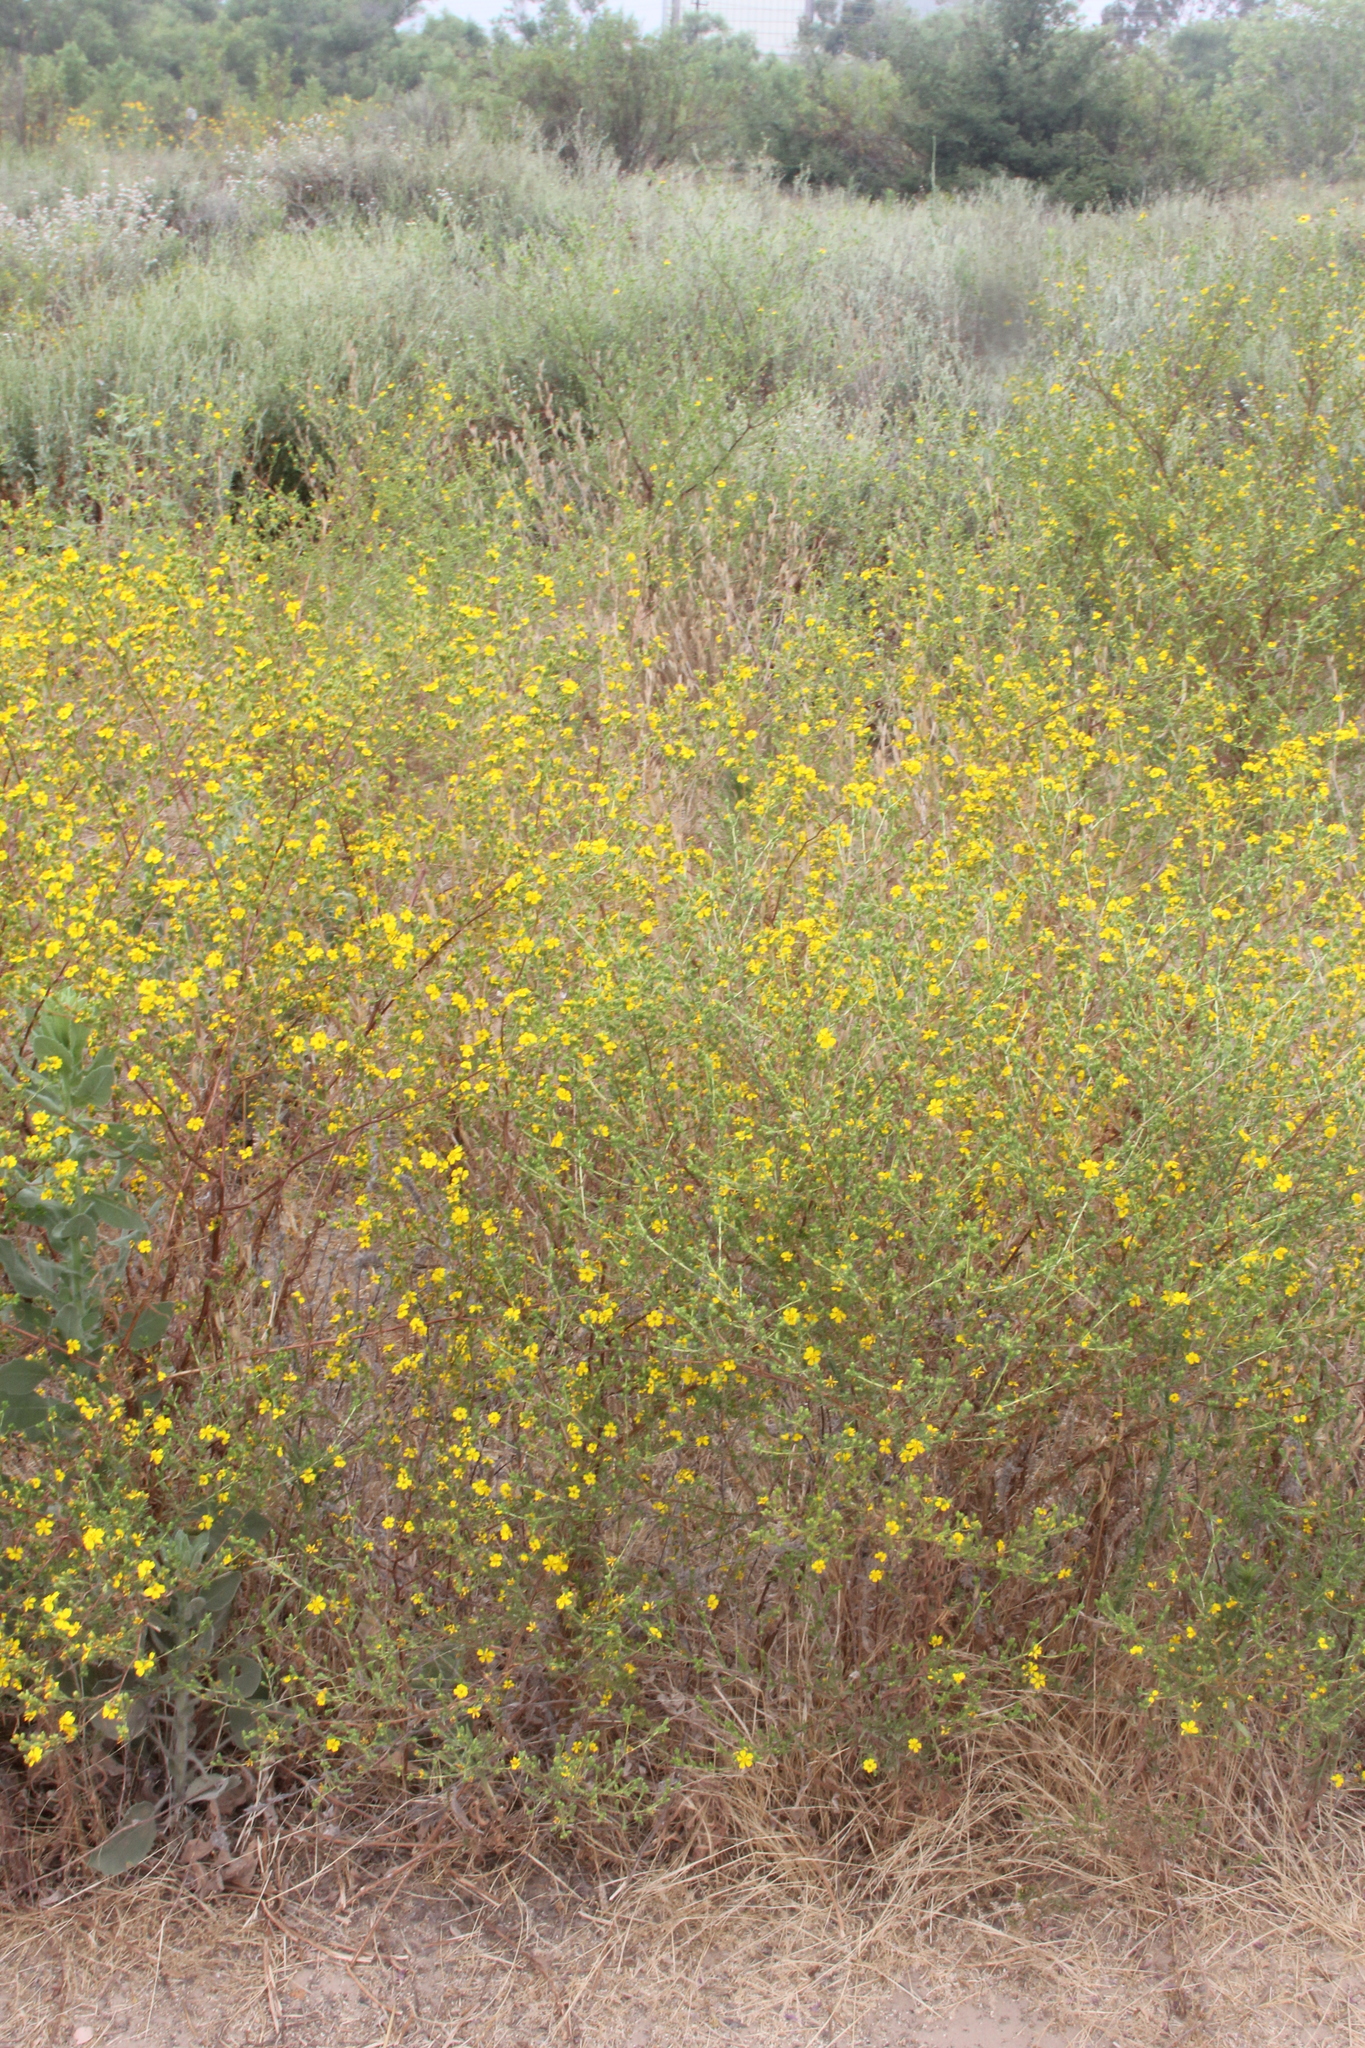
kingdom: Plantae
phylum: Tracheophyta
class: Magnoliopsida
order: Asterales
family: Asteraceae
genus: Deinandra
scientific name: Deinandra fasciculata
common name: Clustered tarweed
